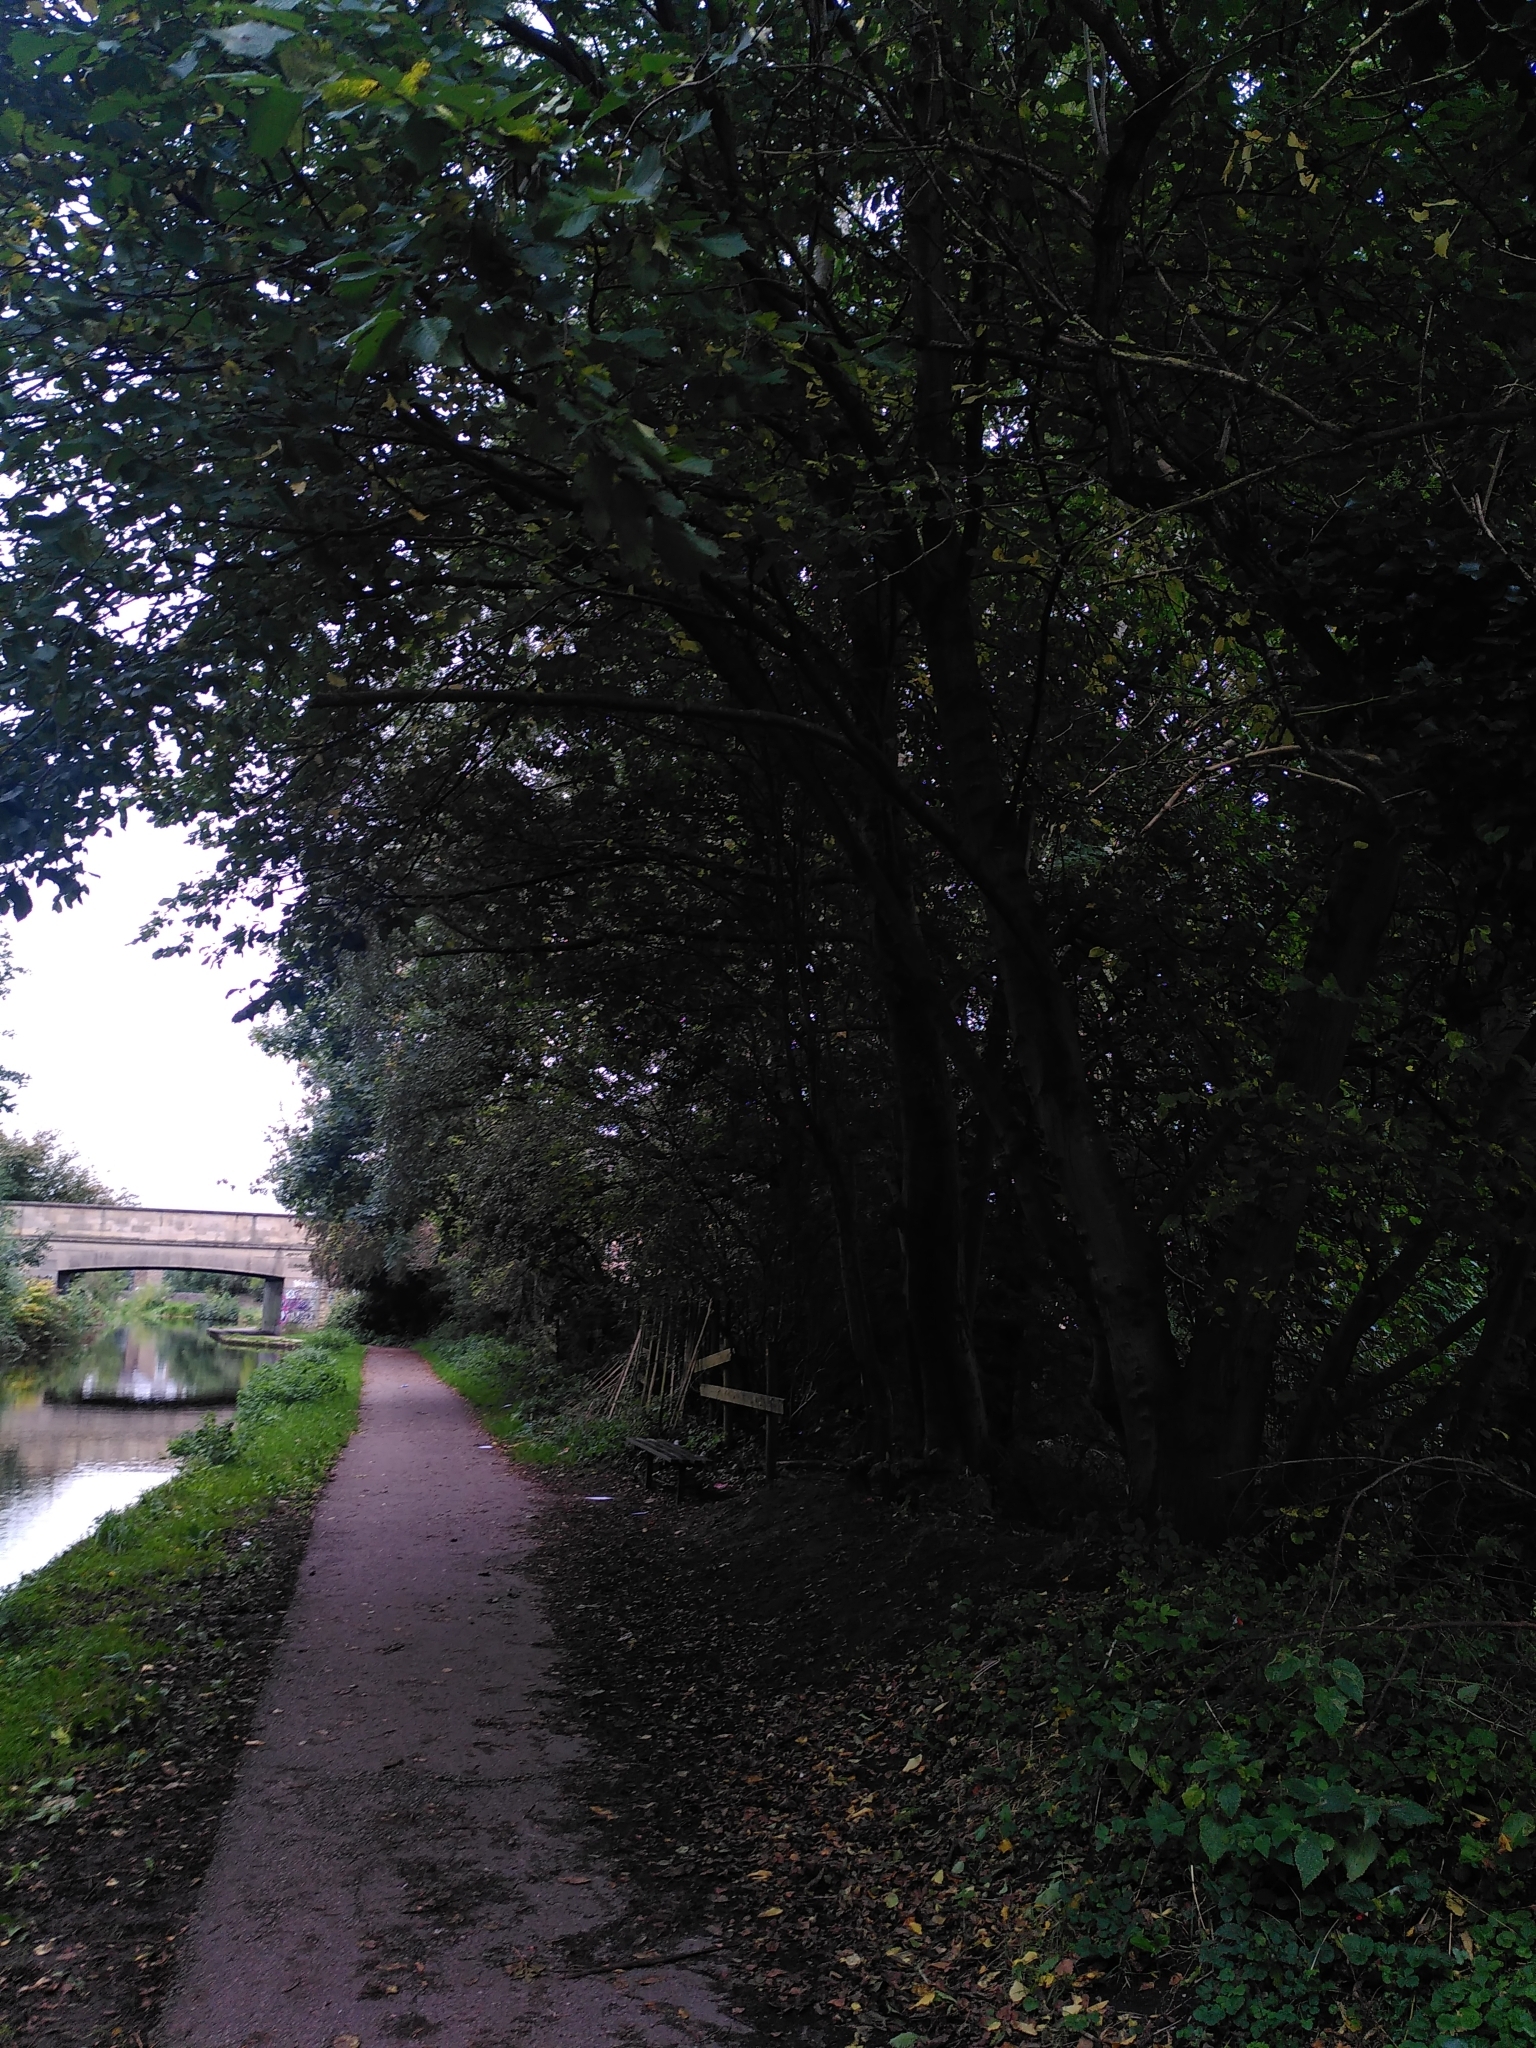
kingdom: Plantae
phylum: Tracheophyta
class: Magnoliopsida
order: Rosales
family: Ulmaceae
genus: Ulmus
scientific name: Ulmus glabra
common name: Wych elm
